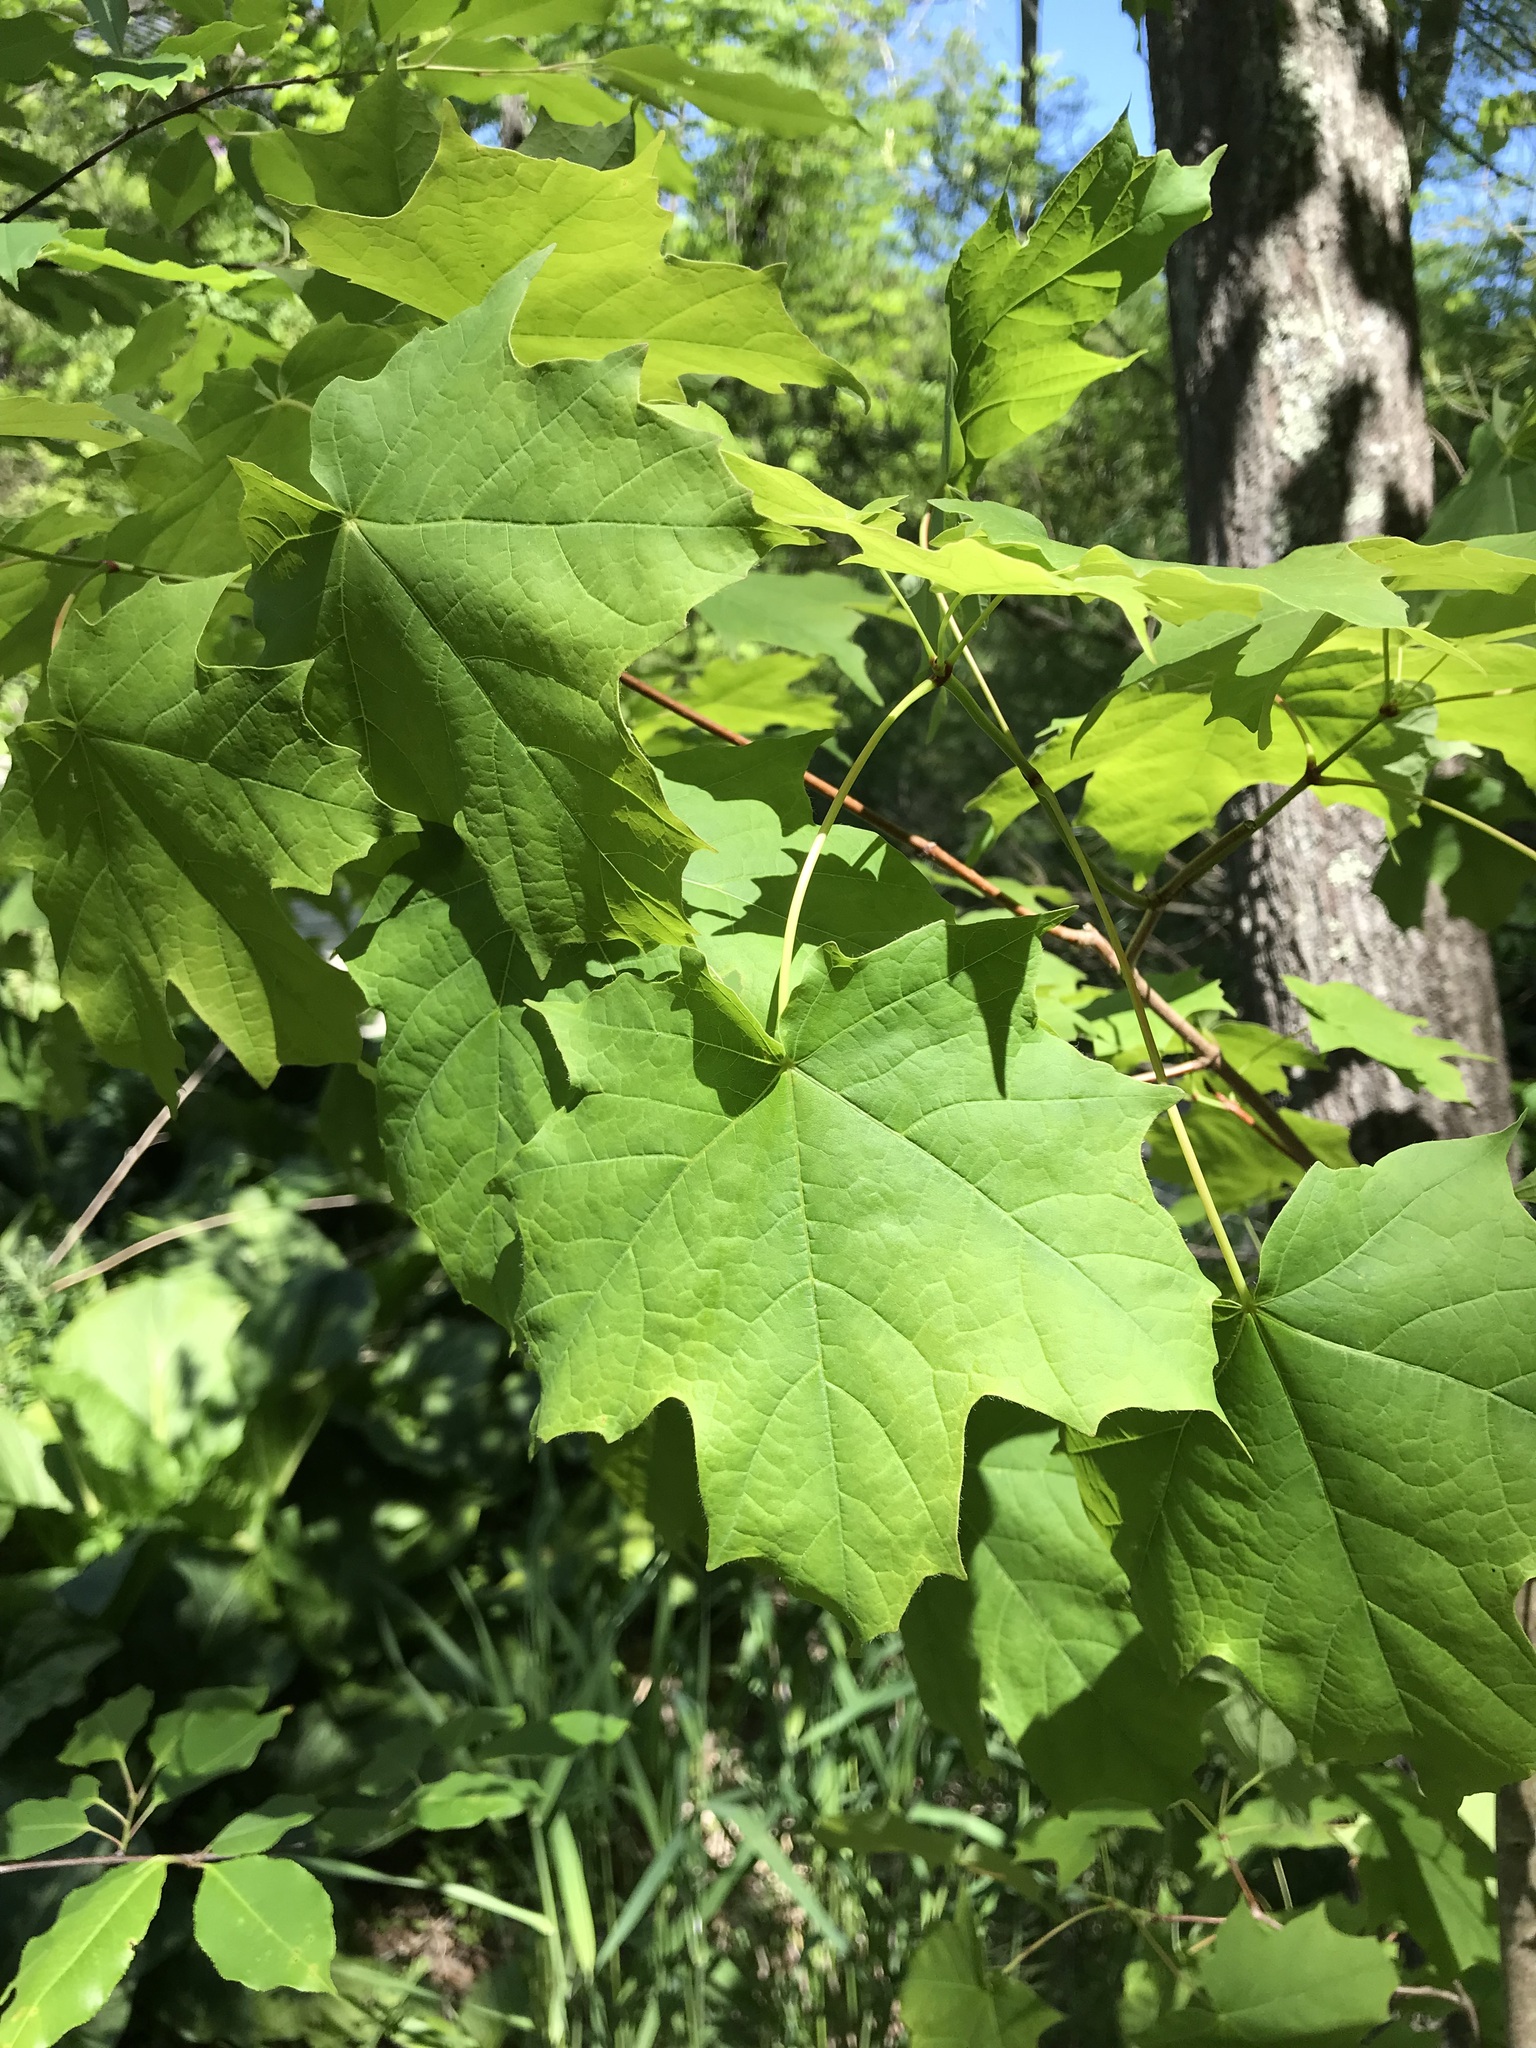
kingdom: Plantae
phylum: Tracheophyta
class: Magnoliopsida
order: Sapindales
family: Sapindaceae
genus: Acer
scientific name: Acer saccharum
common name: Sugar maple
